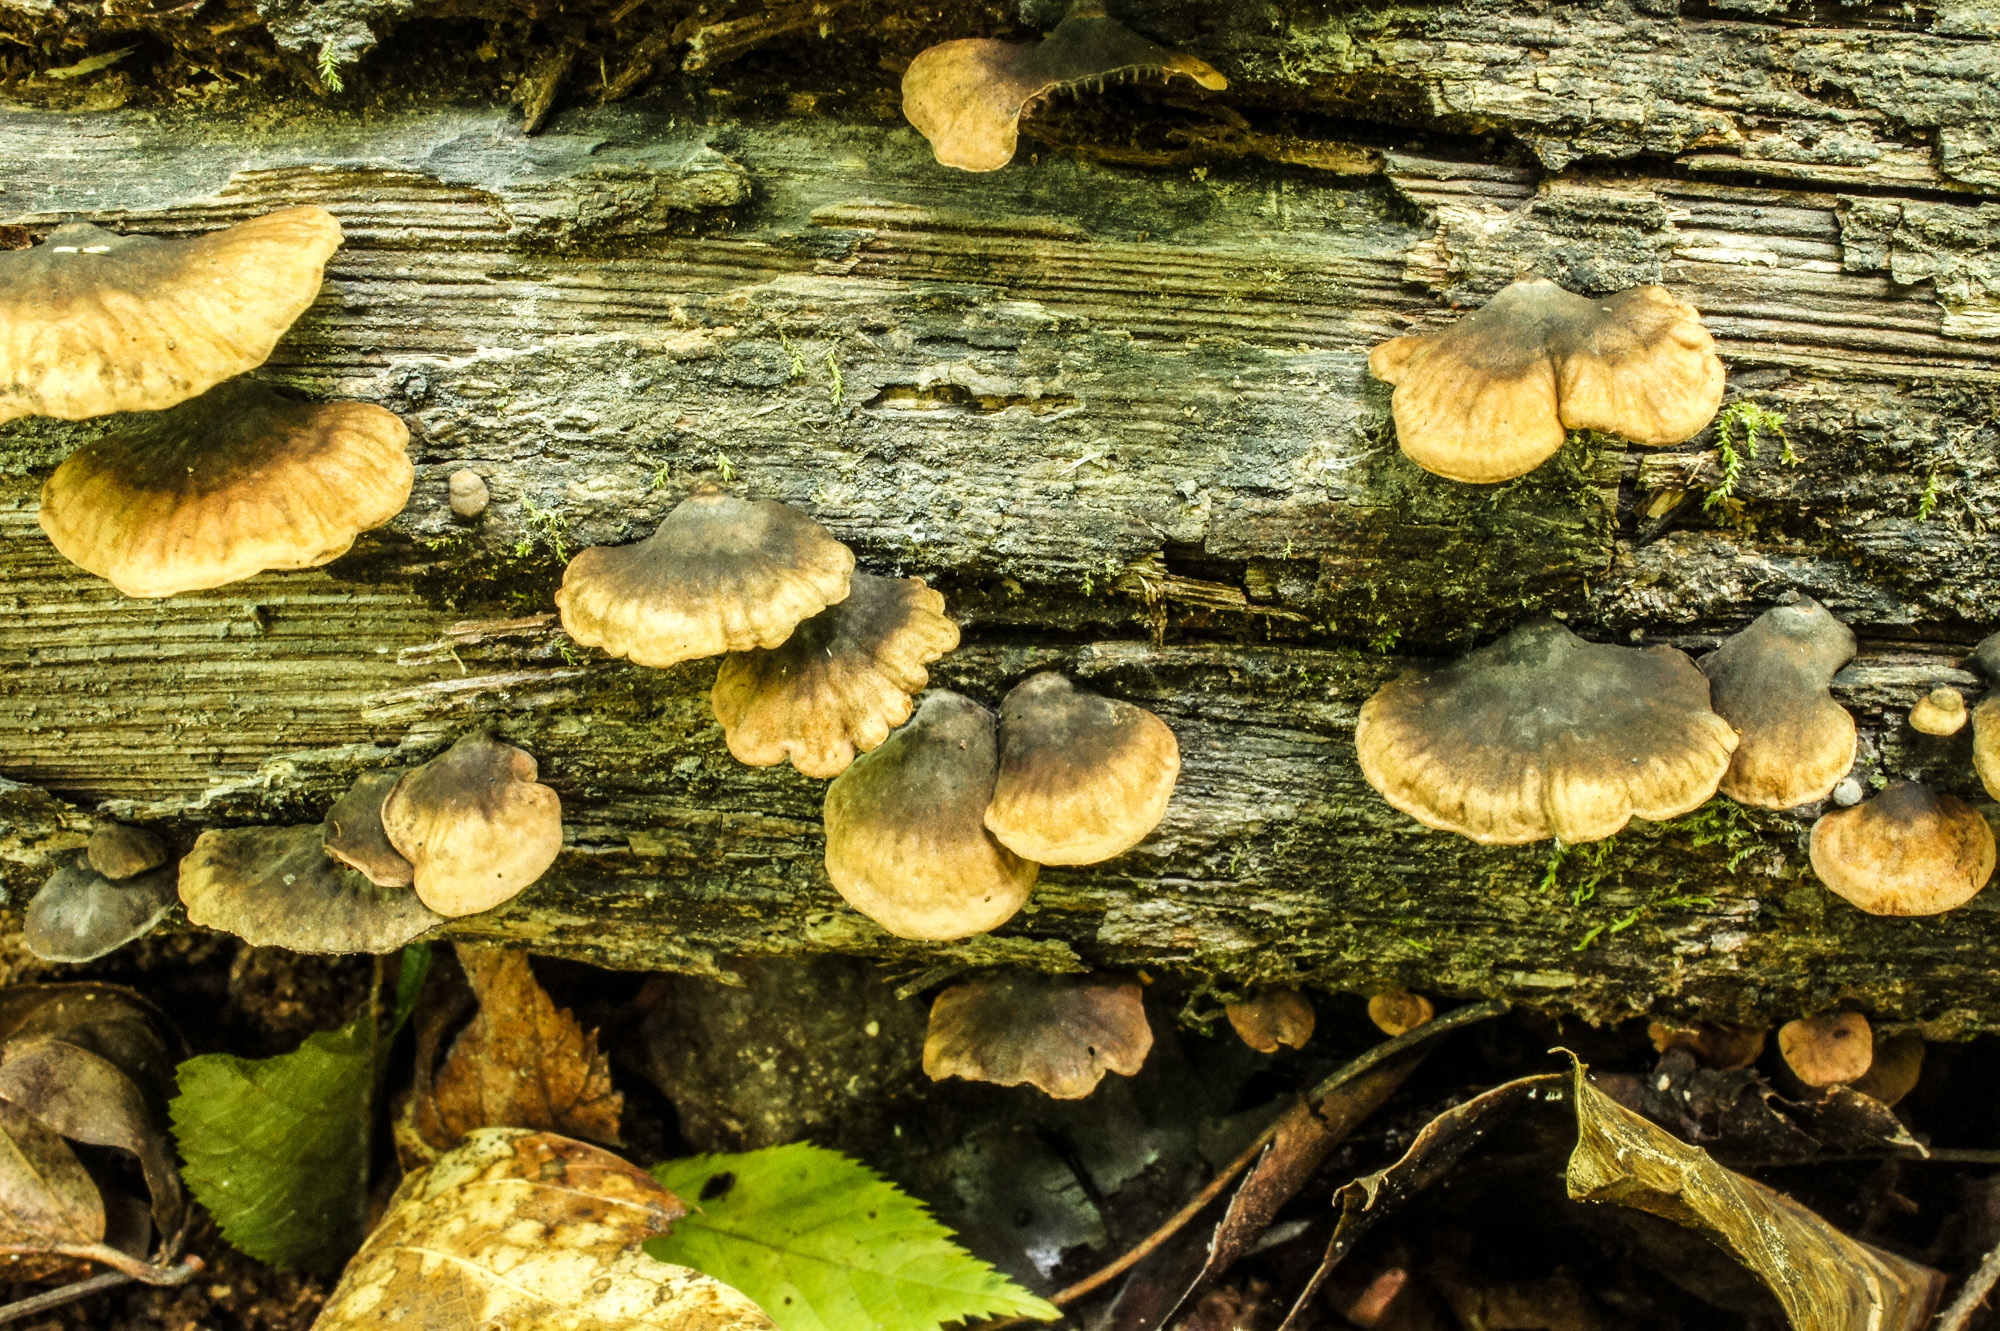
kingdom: Fungi
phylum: Basidiomycota
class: Agaricomycetes
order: Agaricales
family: Omphalotaceae
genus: Anthracophyllum
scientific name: Anthracophyllum lateritium
